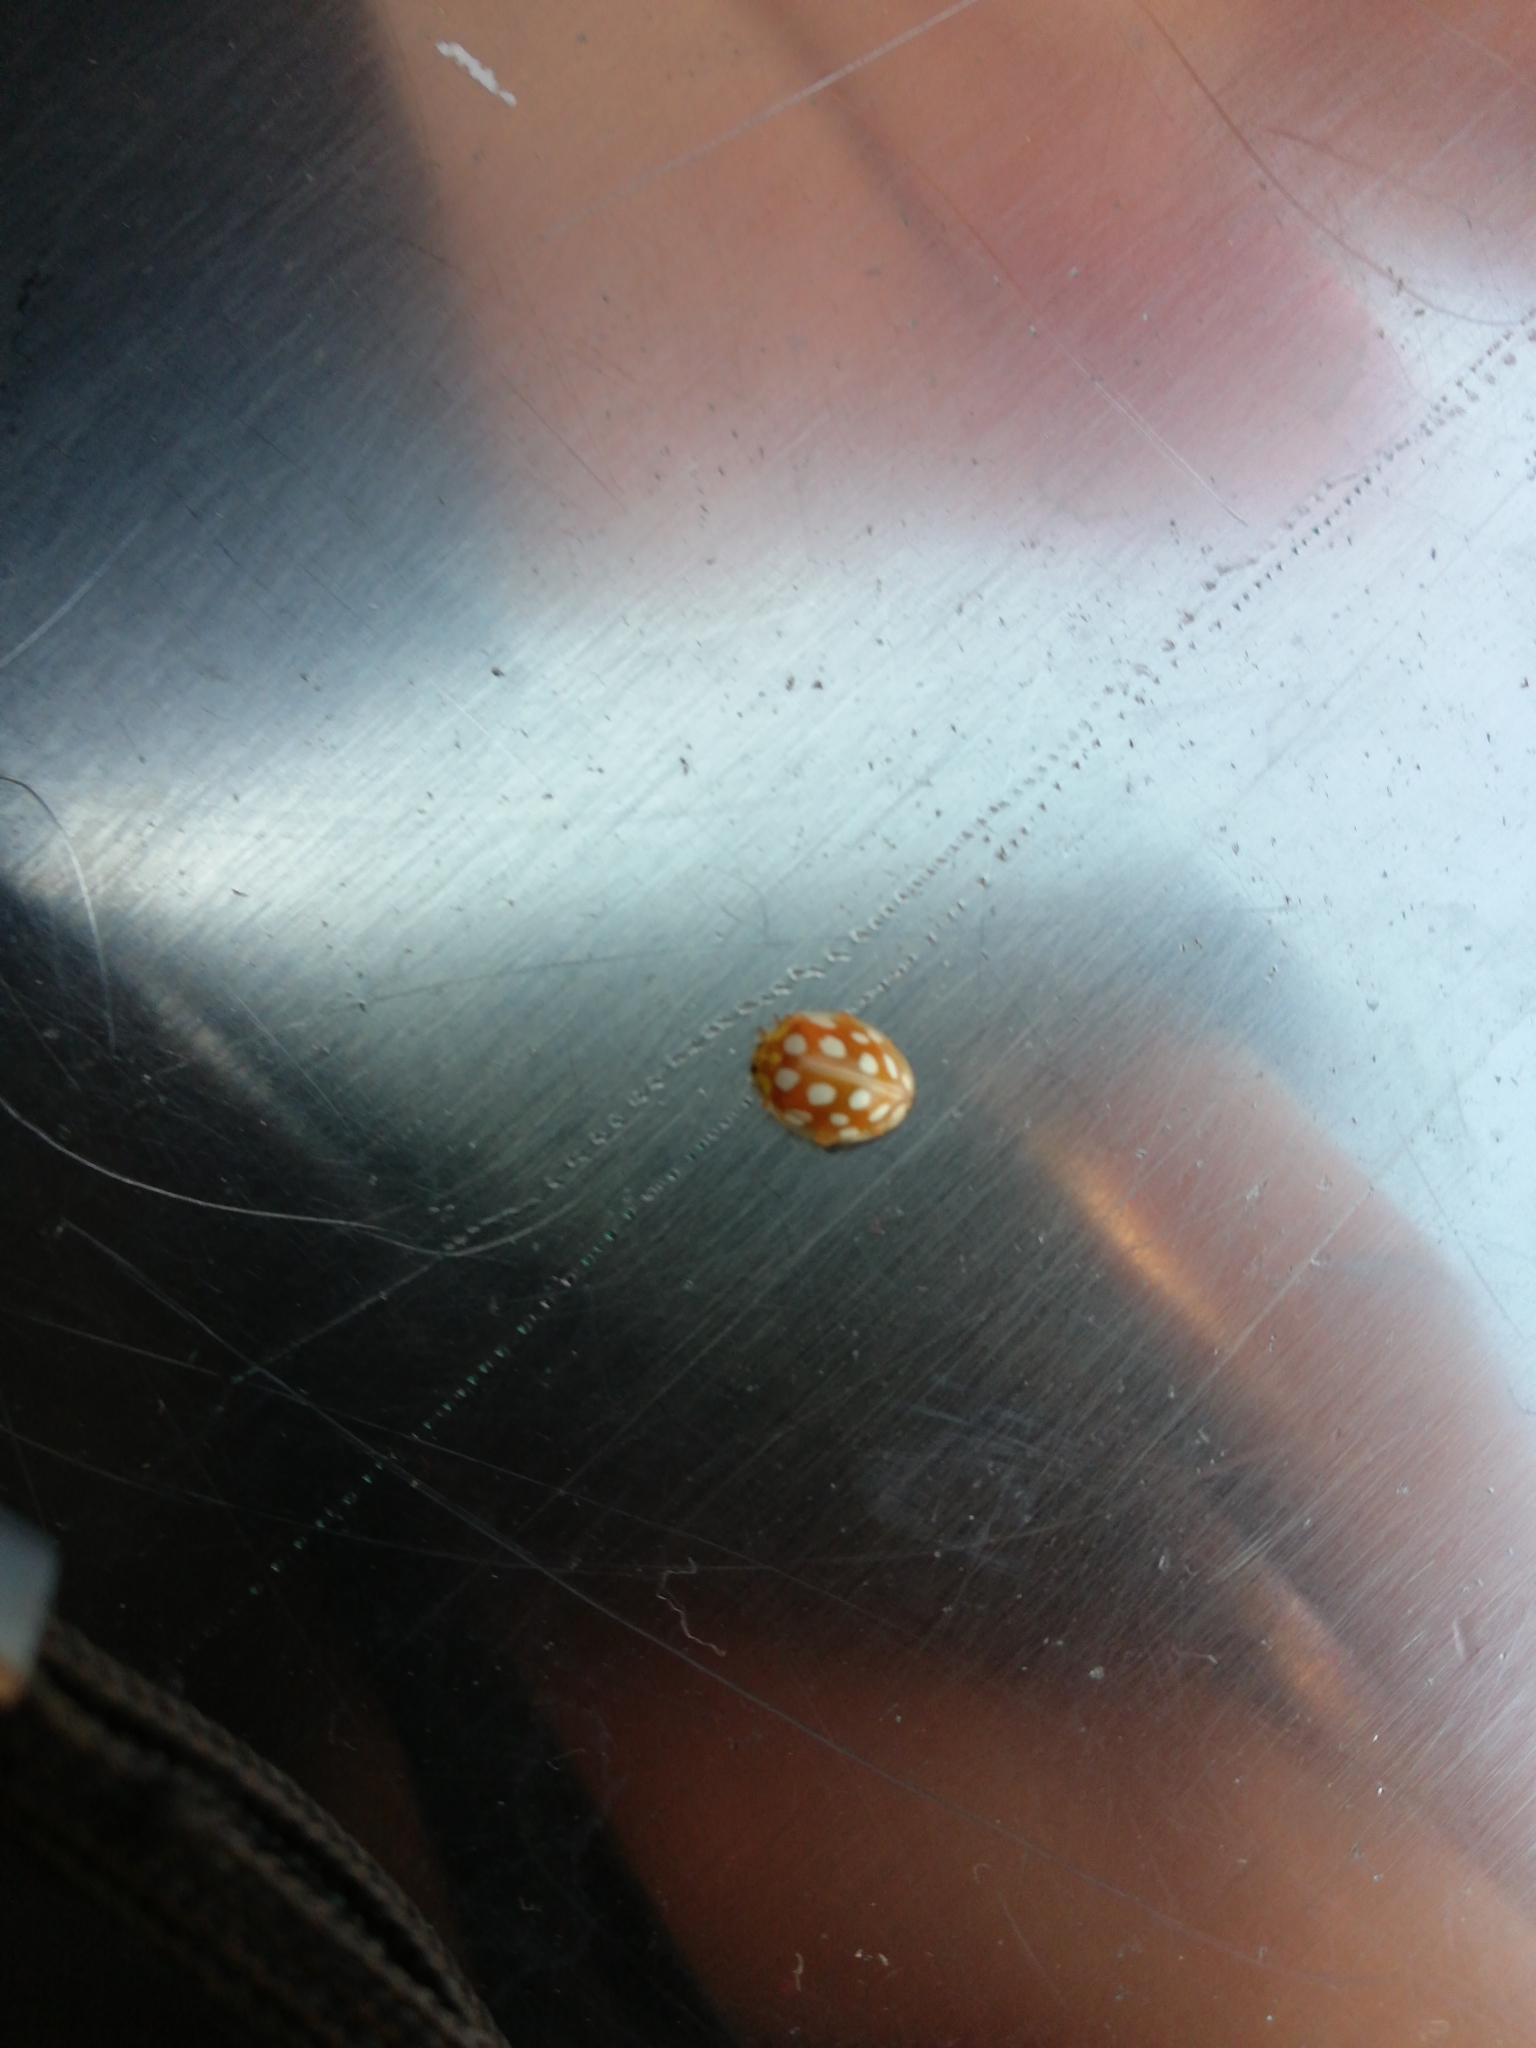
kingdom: Animalia
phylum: Arthropoda
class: Insecta
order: Coleoptera
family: Coccinellidae
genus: Halyzia
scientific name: Halyzia sedecimguttata
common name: Orange ladybird
